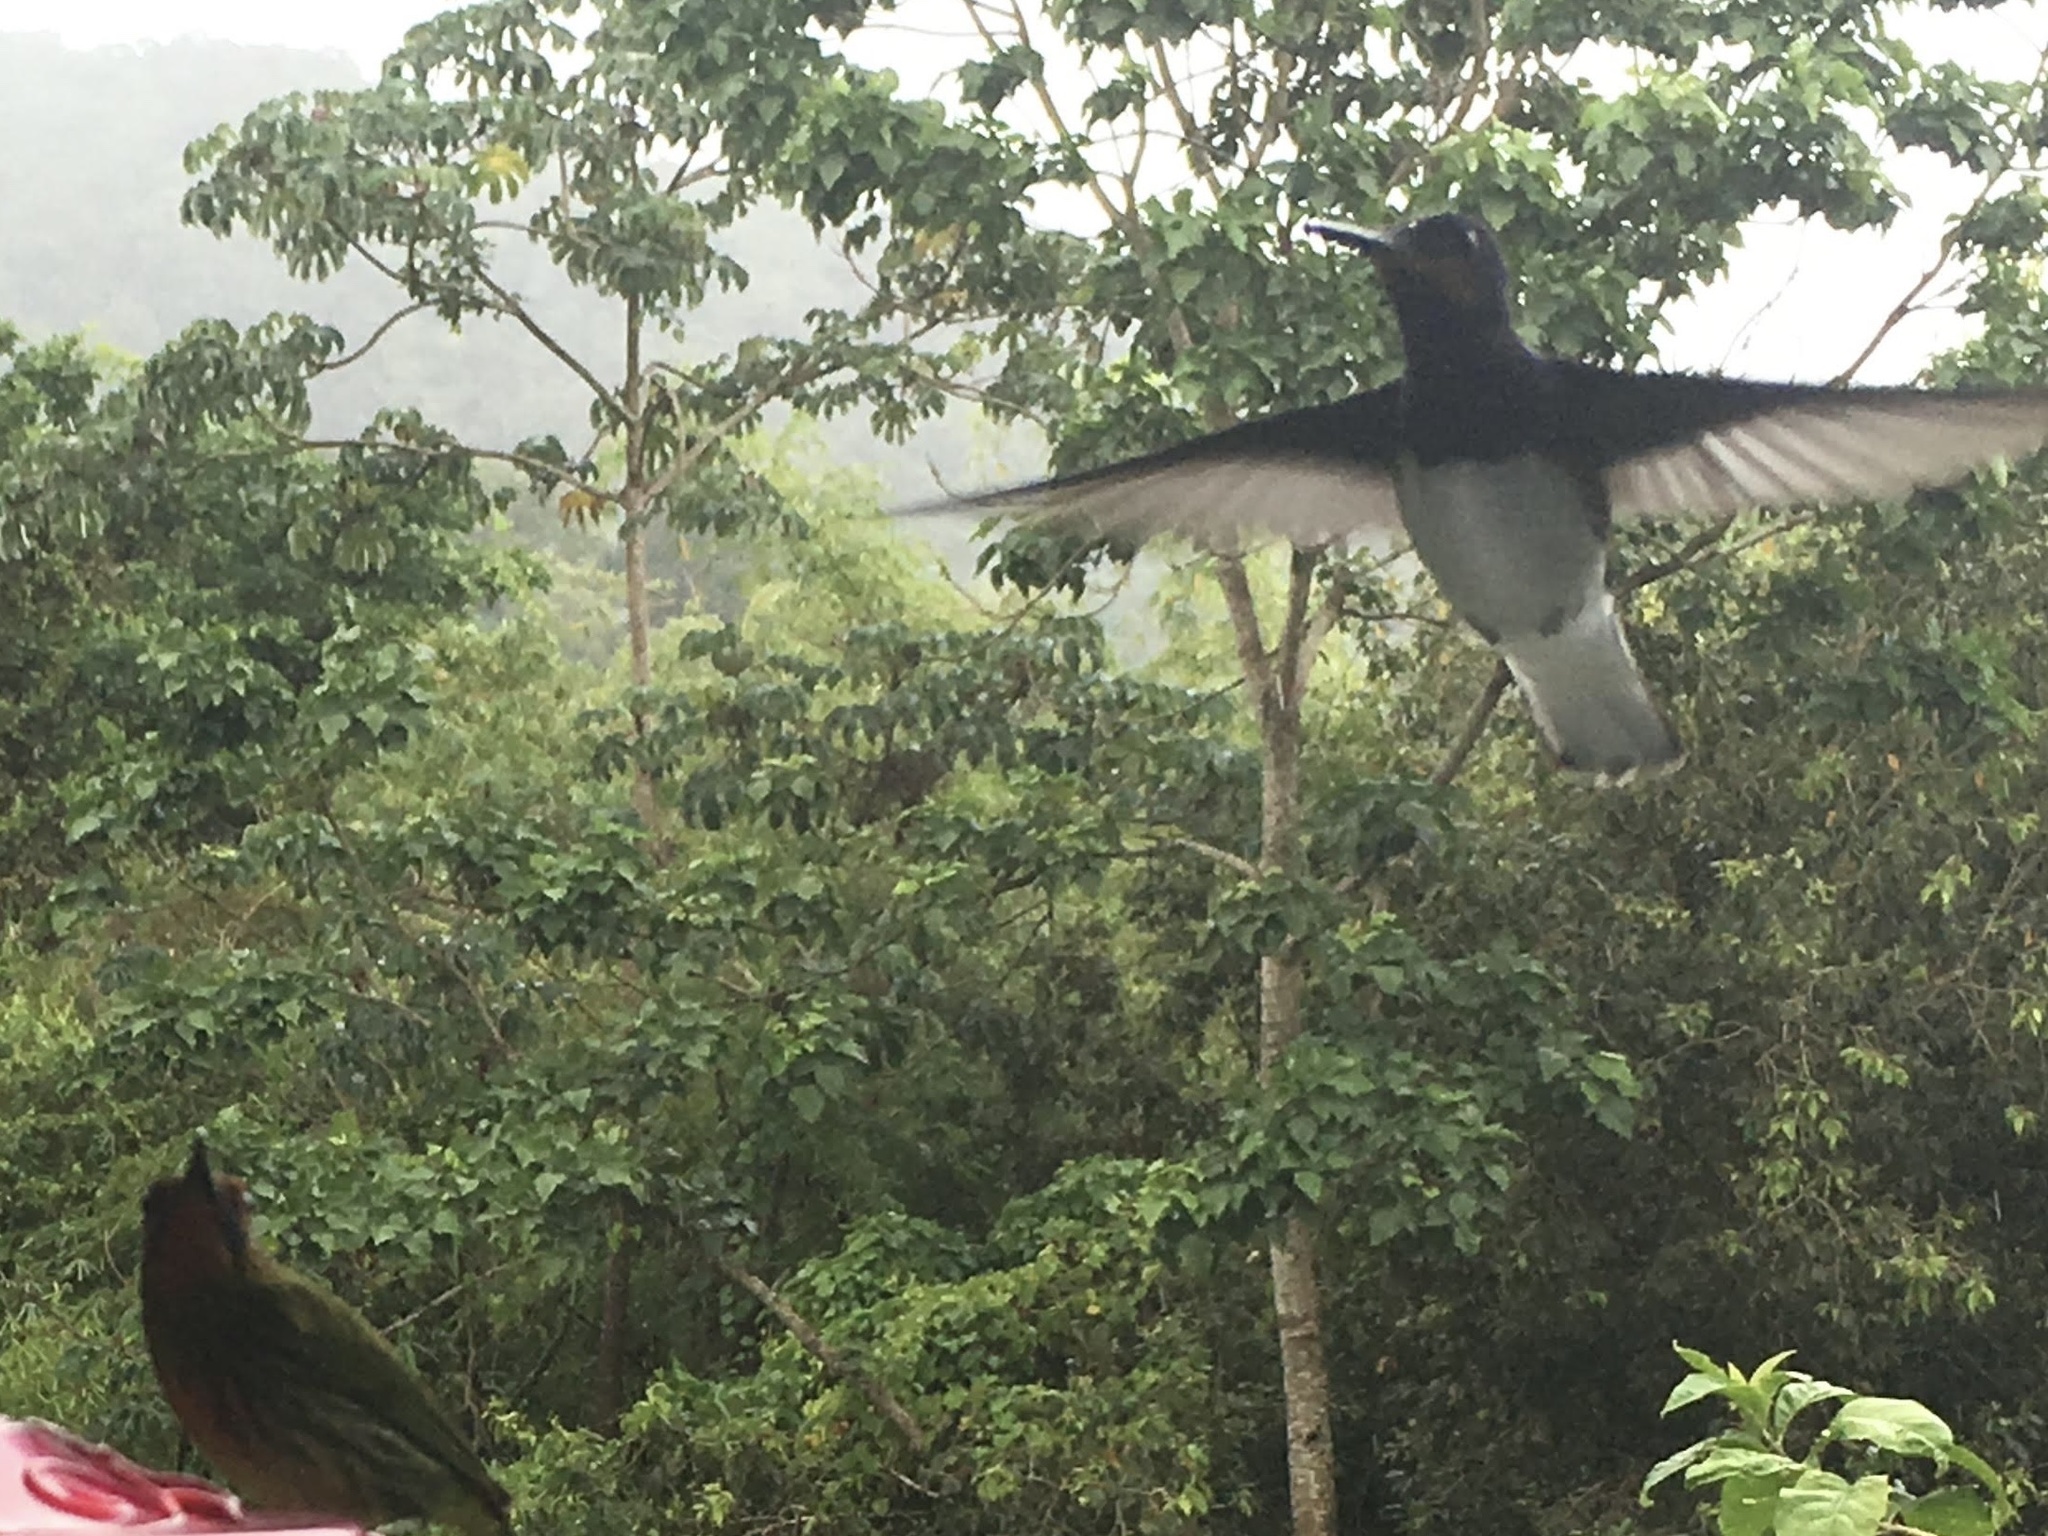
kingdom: Animalia
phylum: Chordata
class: Aves
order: Apodiformes
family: Trochilidae
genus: Florisuga
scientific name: Florisuga mellivora
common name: White-necked jacobin
